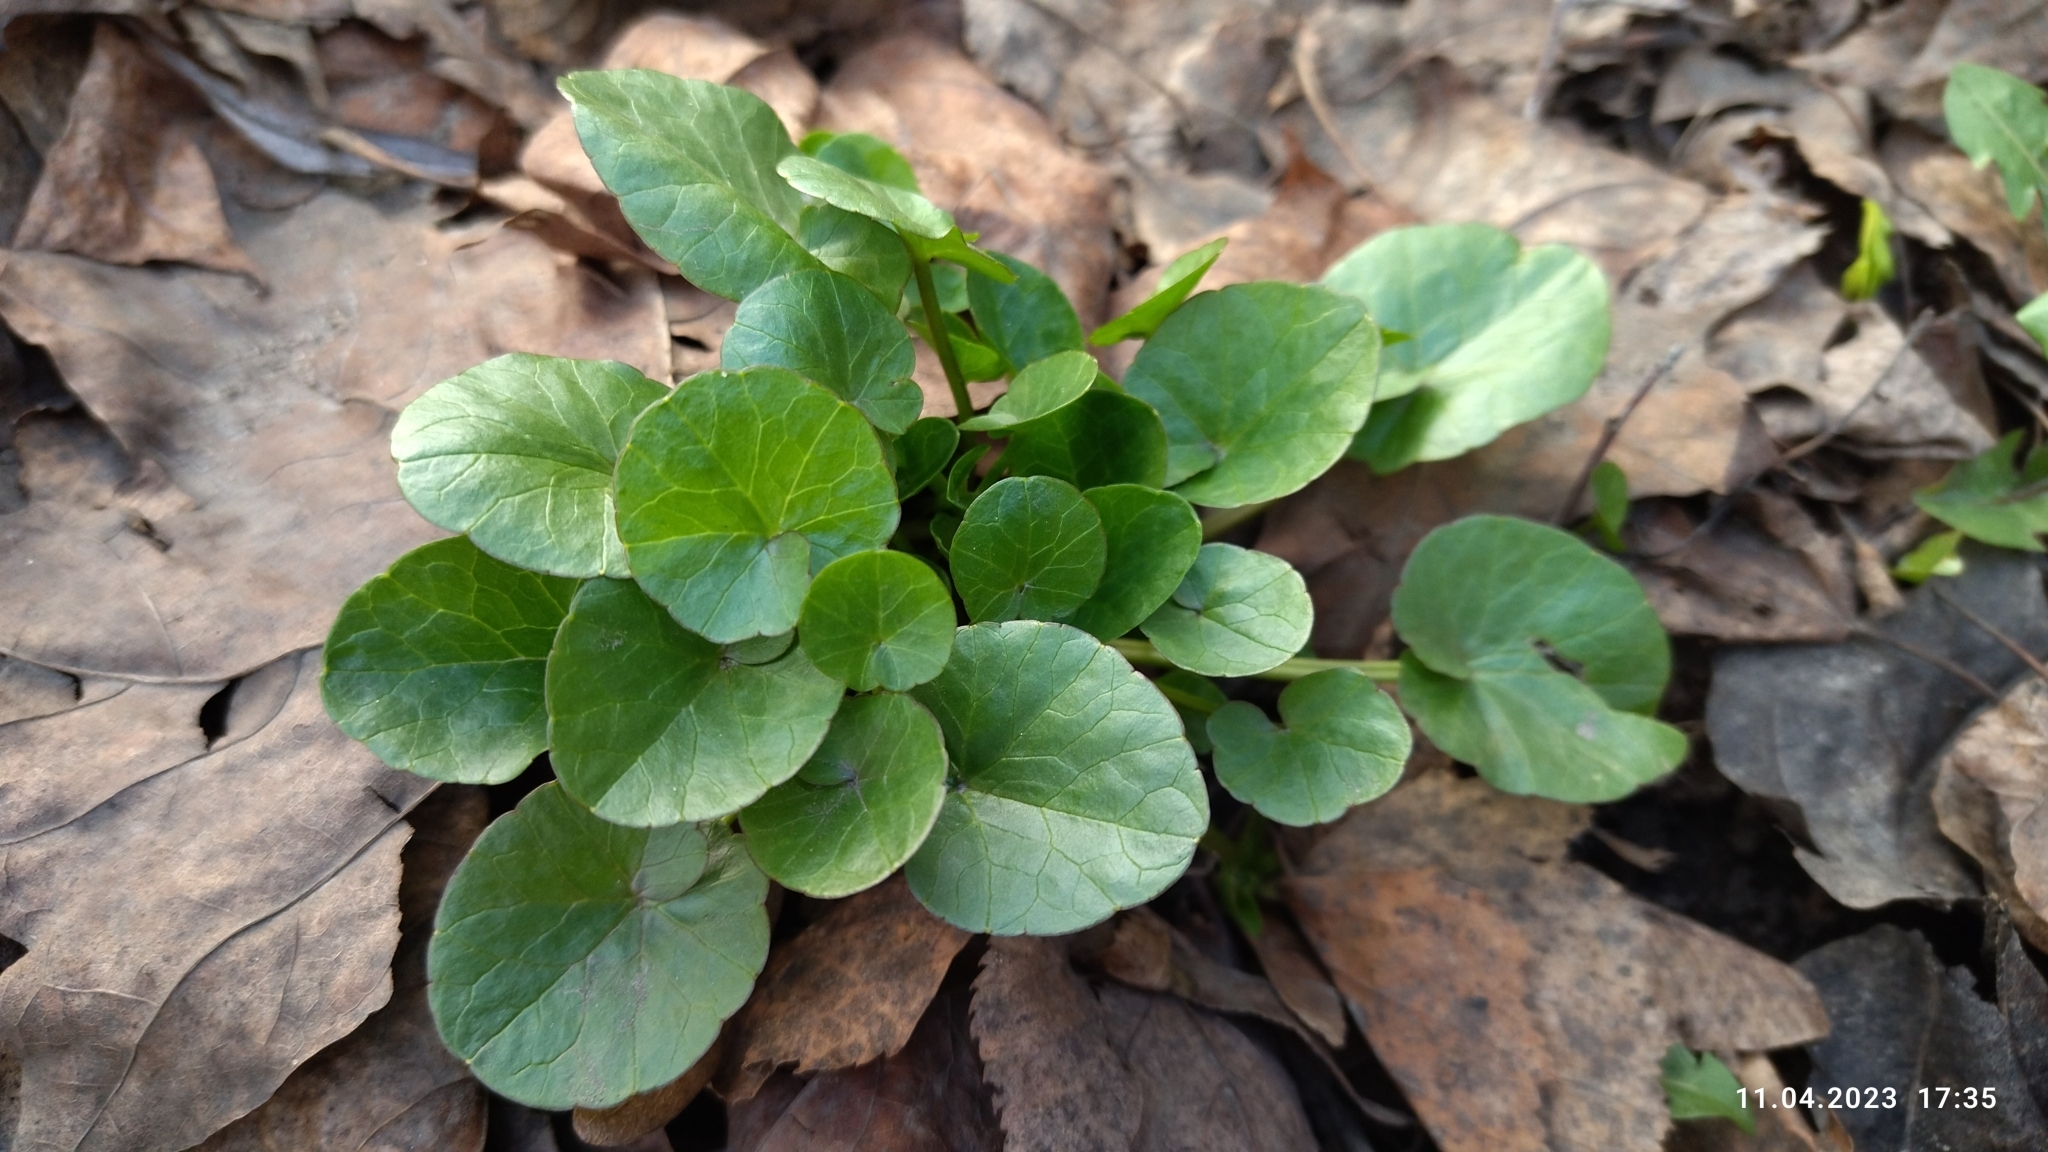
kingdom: Plantae
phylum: Tracheophyta
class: Magnoliopsida
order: Ranunculales
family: Ranunculaceae
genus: Ficaria
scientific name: Ficaria verna
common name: Lesser celandine
